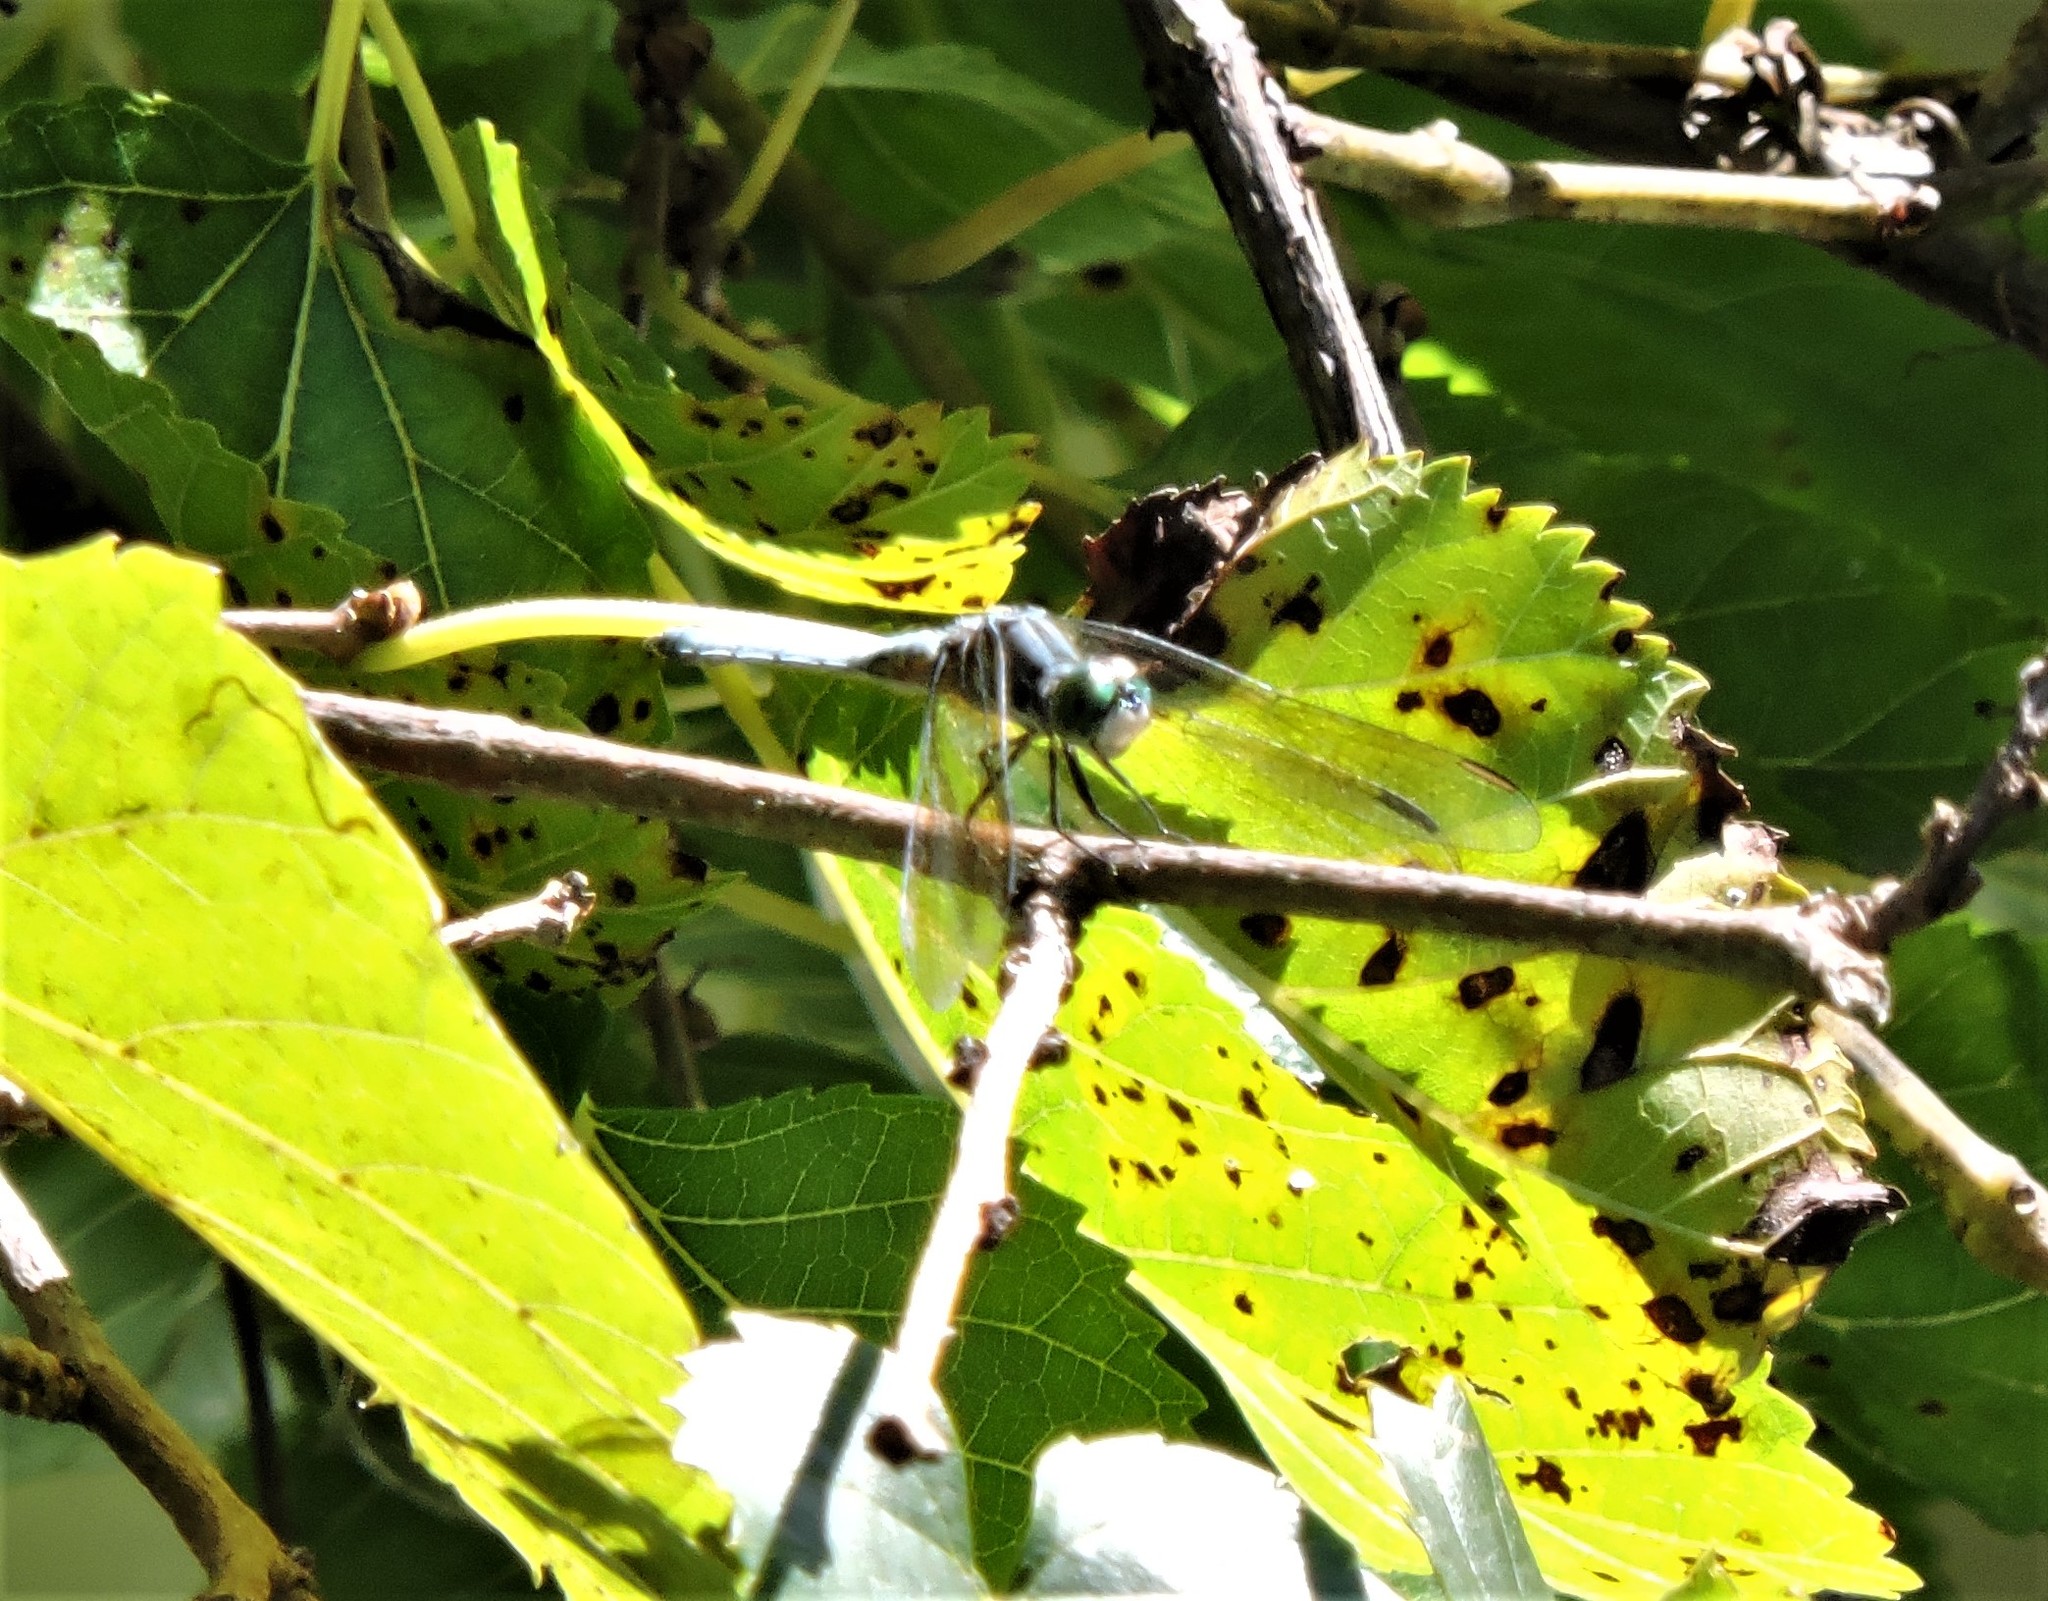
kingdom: Animalia
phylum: Arthropoda
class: Insecta
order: Odonata
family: Libellulidae
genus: Pachydiplax
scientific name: Pachydiplax longipennis
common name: Blue dasher
